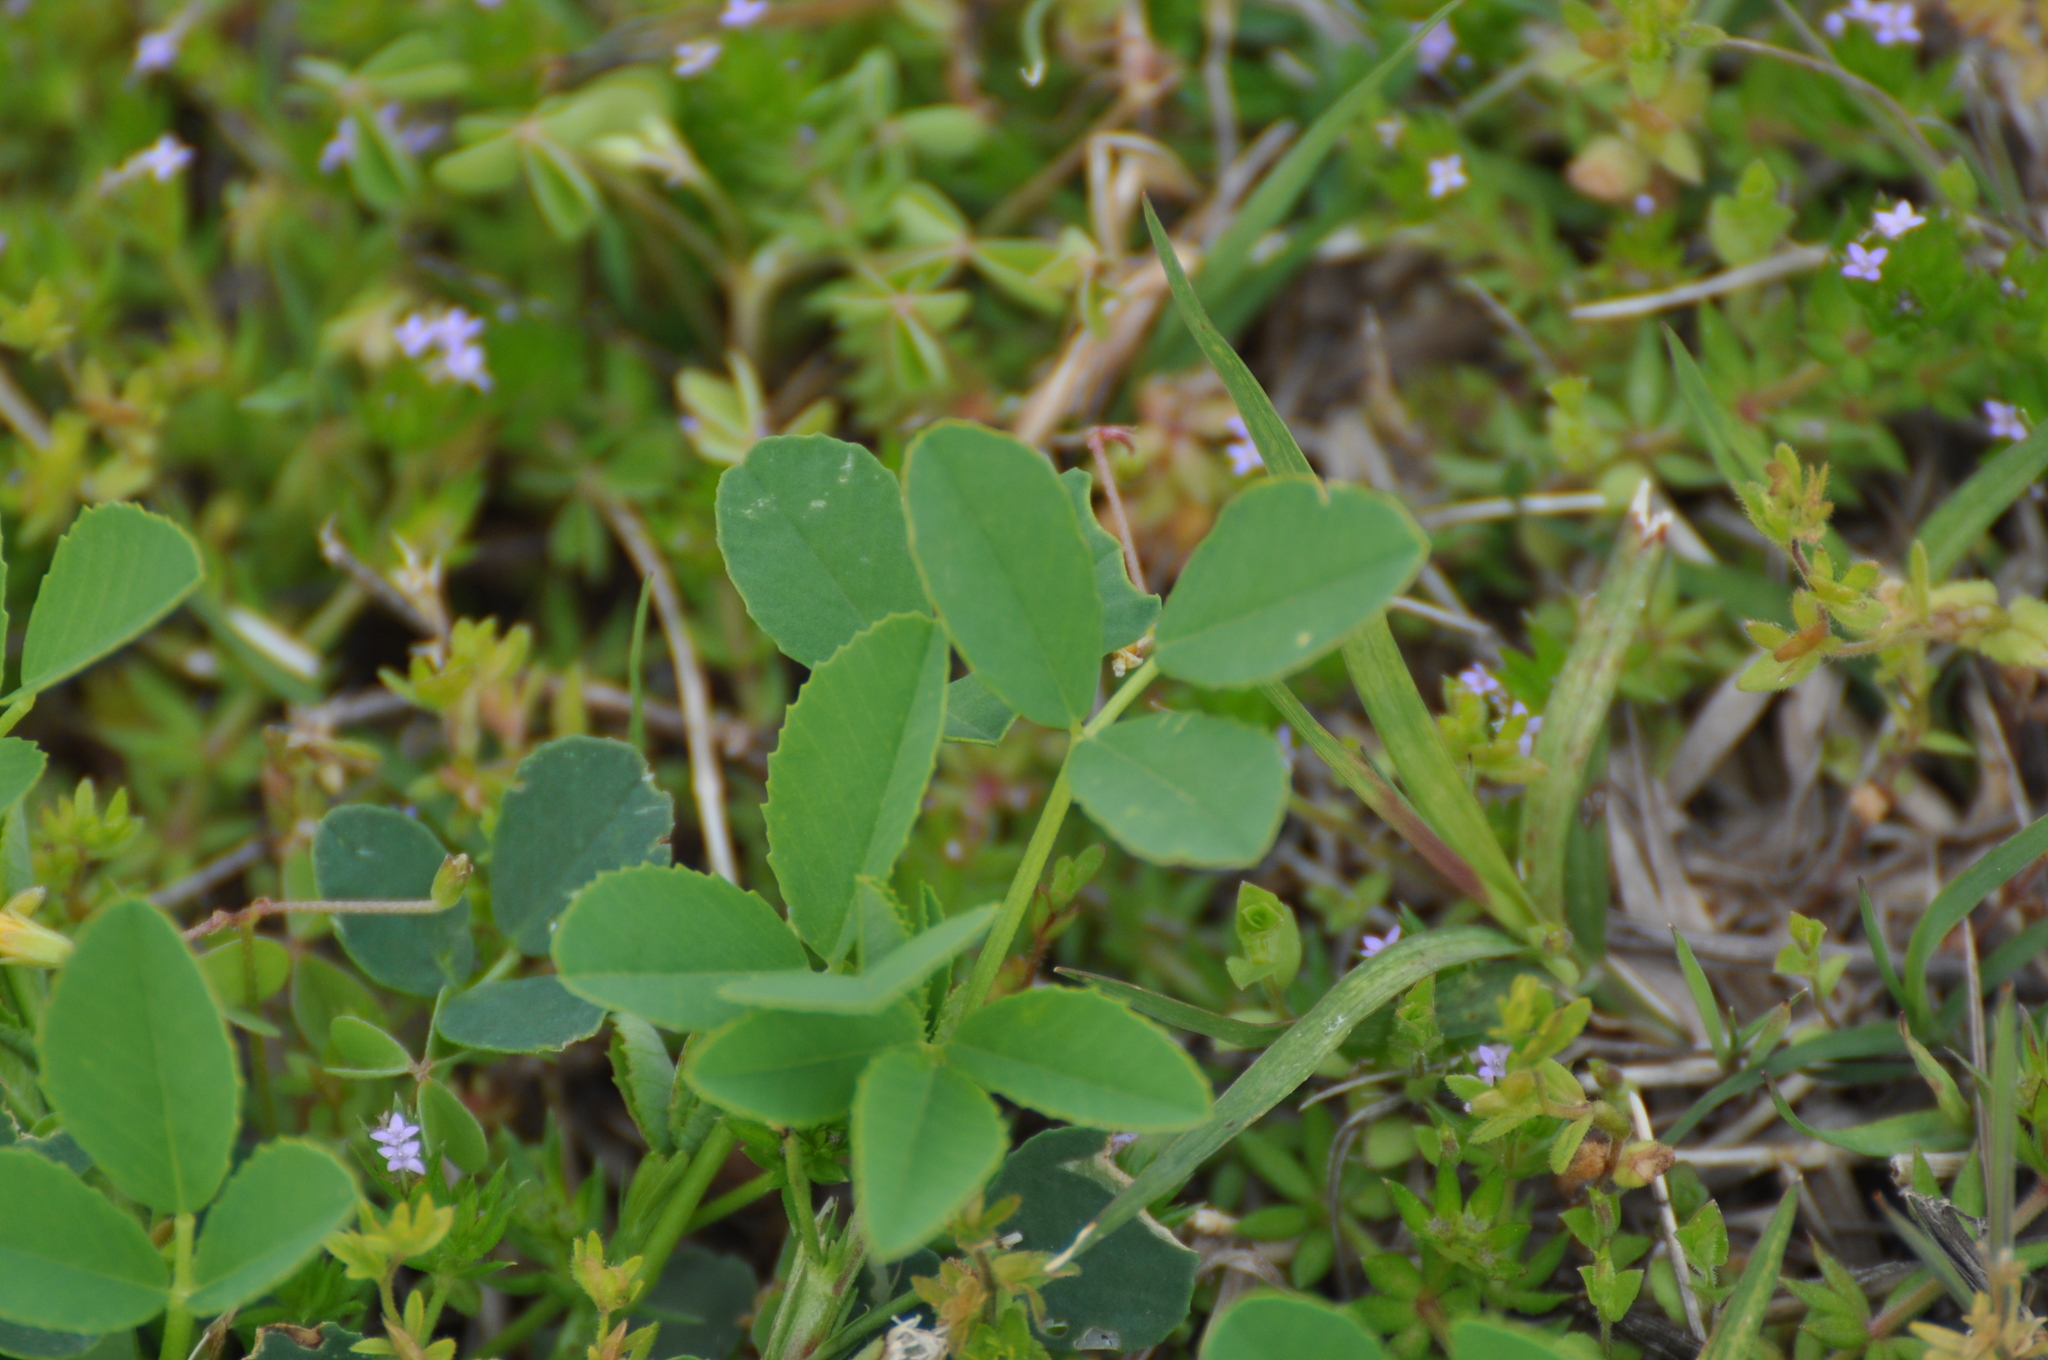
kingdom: Plantae
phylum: Tracheophyta
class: Magnoliopsida
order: Fabales
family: Fabaceae
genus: Melilotus
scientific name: Melilotus
